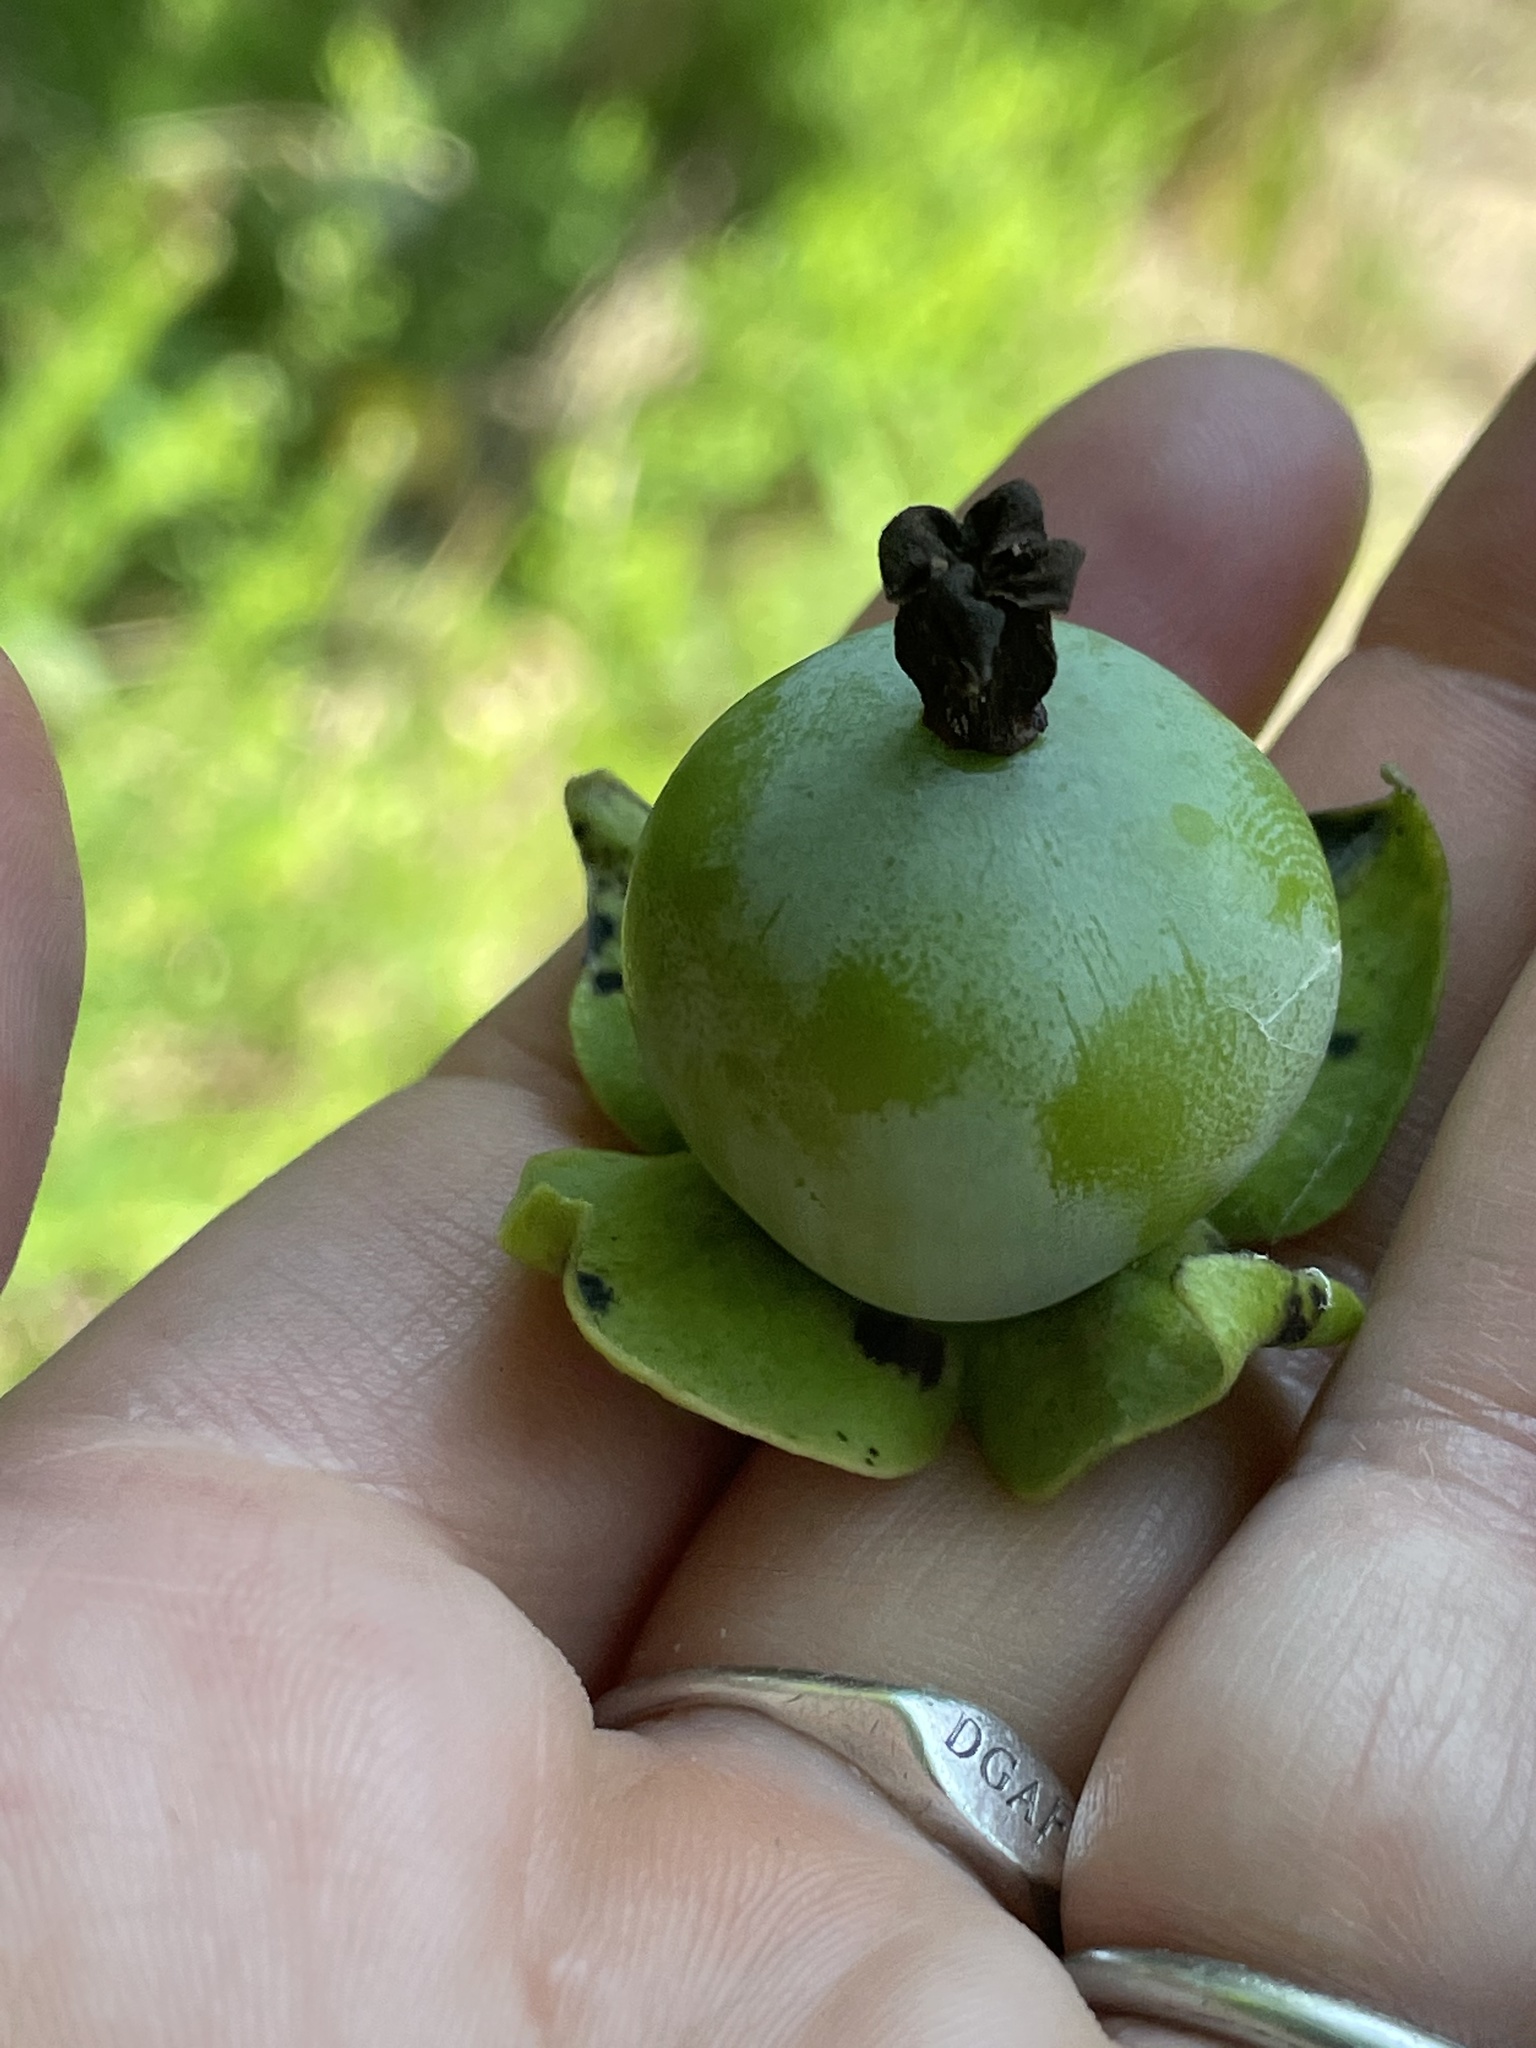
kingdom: Plantae
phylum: Tracheophyta
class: Magnoliopsida
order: Ericales
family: Ebenaceae
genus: Diospyros
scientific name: Diospyros virginiana
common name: Persimmon
